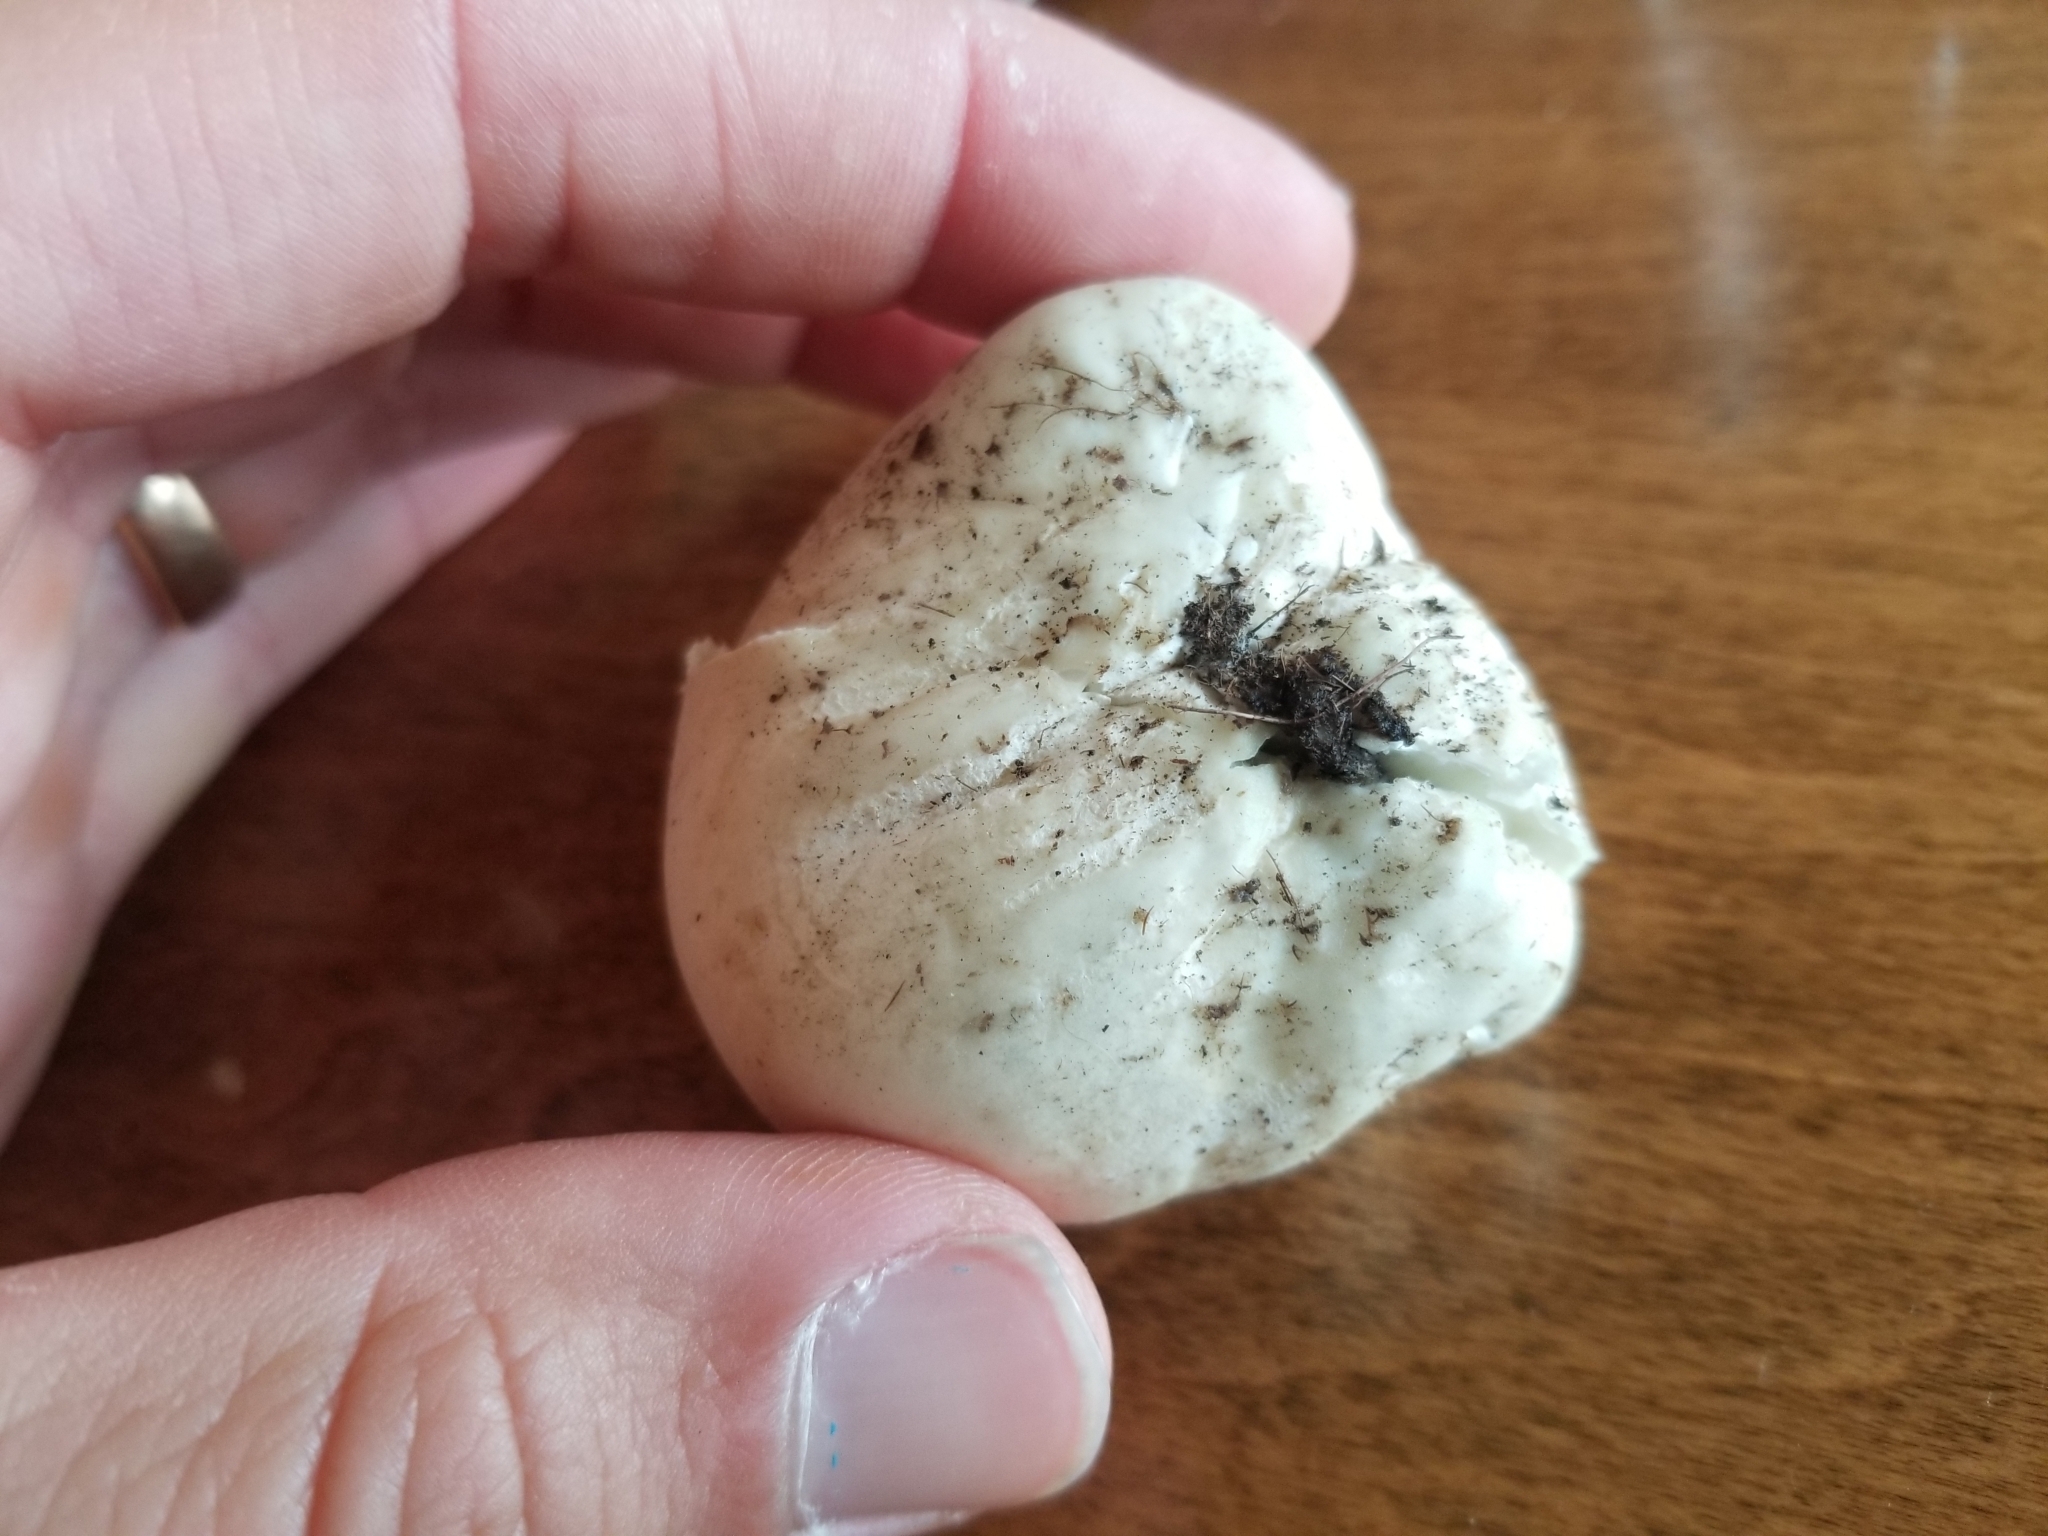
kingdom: Fungi
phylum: Basidiomycota
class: Agaricomycetes
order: Agaricales
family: Lycoperdaceae
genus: Calvatia
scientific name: Calvatia gigantea
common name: Giant puffball
